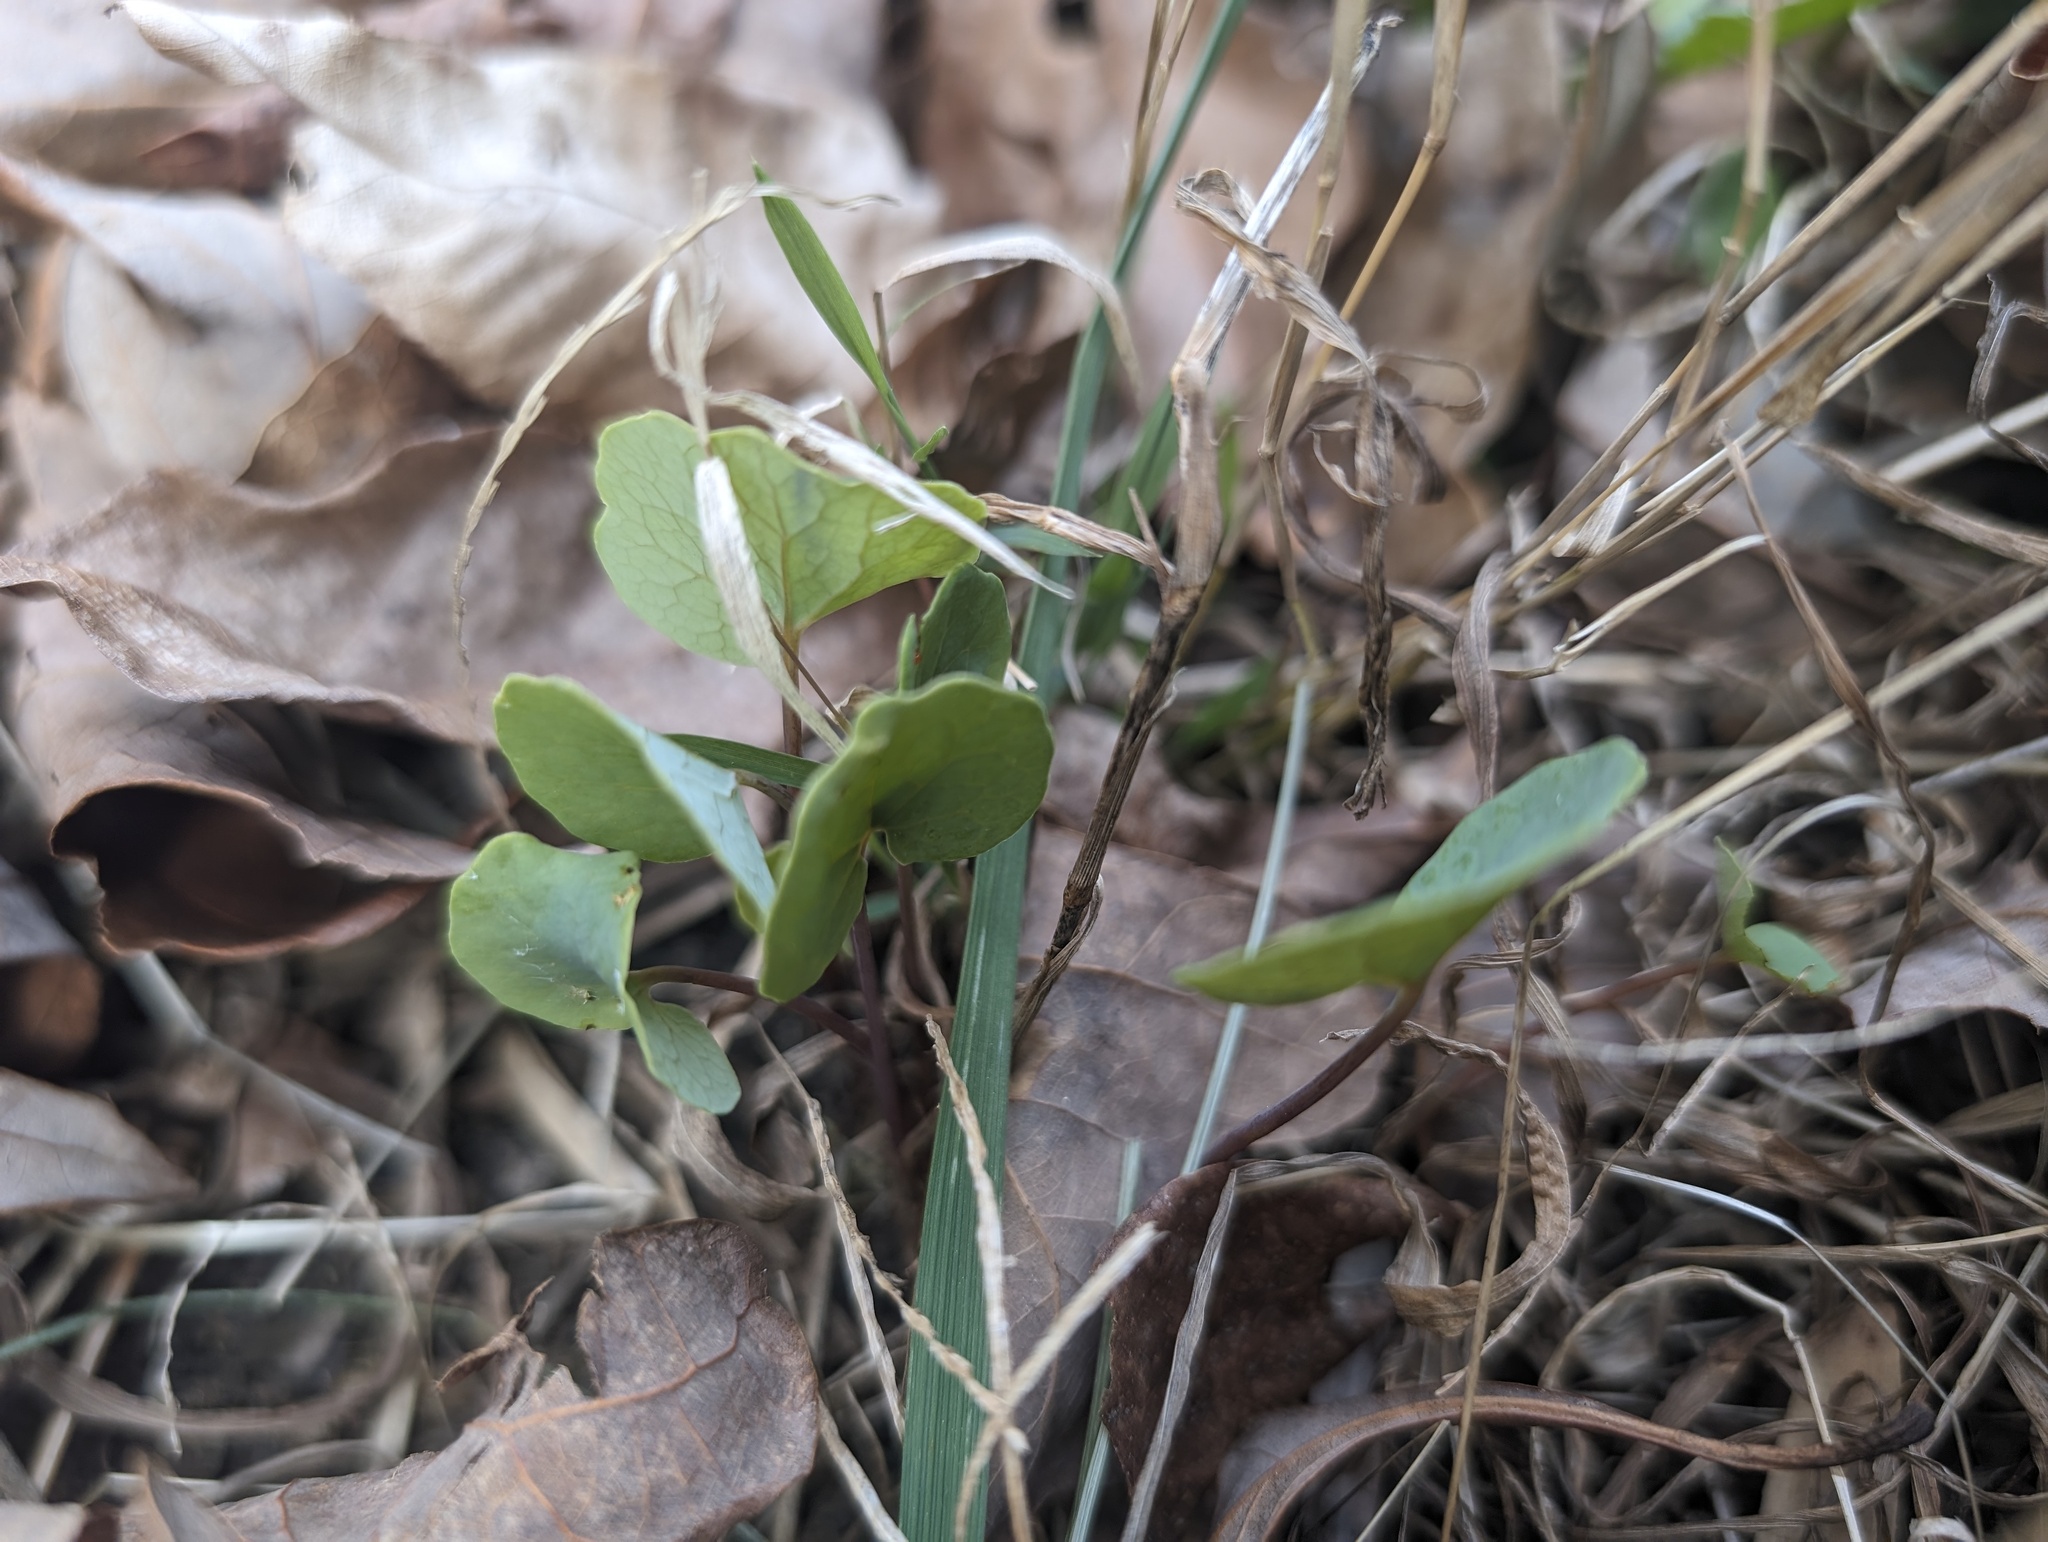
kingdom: Plantae
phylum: Tracheophyta
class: Magnoliopsida
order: Ranunculales
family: Papaveraceae
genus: Sanguinaria
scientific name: Sanguinaria canadensis
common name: Bloodroot
